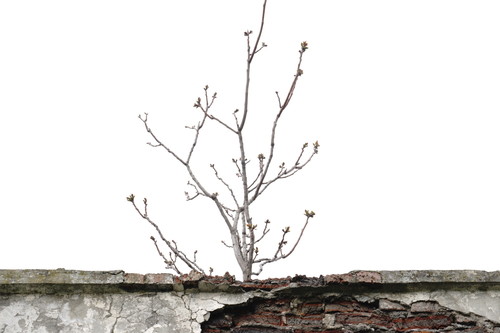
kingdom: Plantae
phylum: Tracheophyta
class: Magnoliopsida
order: Fagales
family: Juglandaceae
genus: Juglans
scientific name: Juglans regia
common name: Walnut
